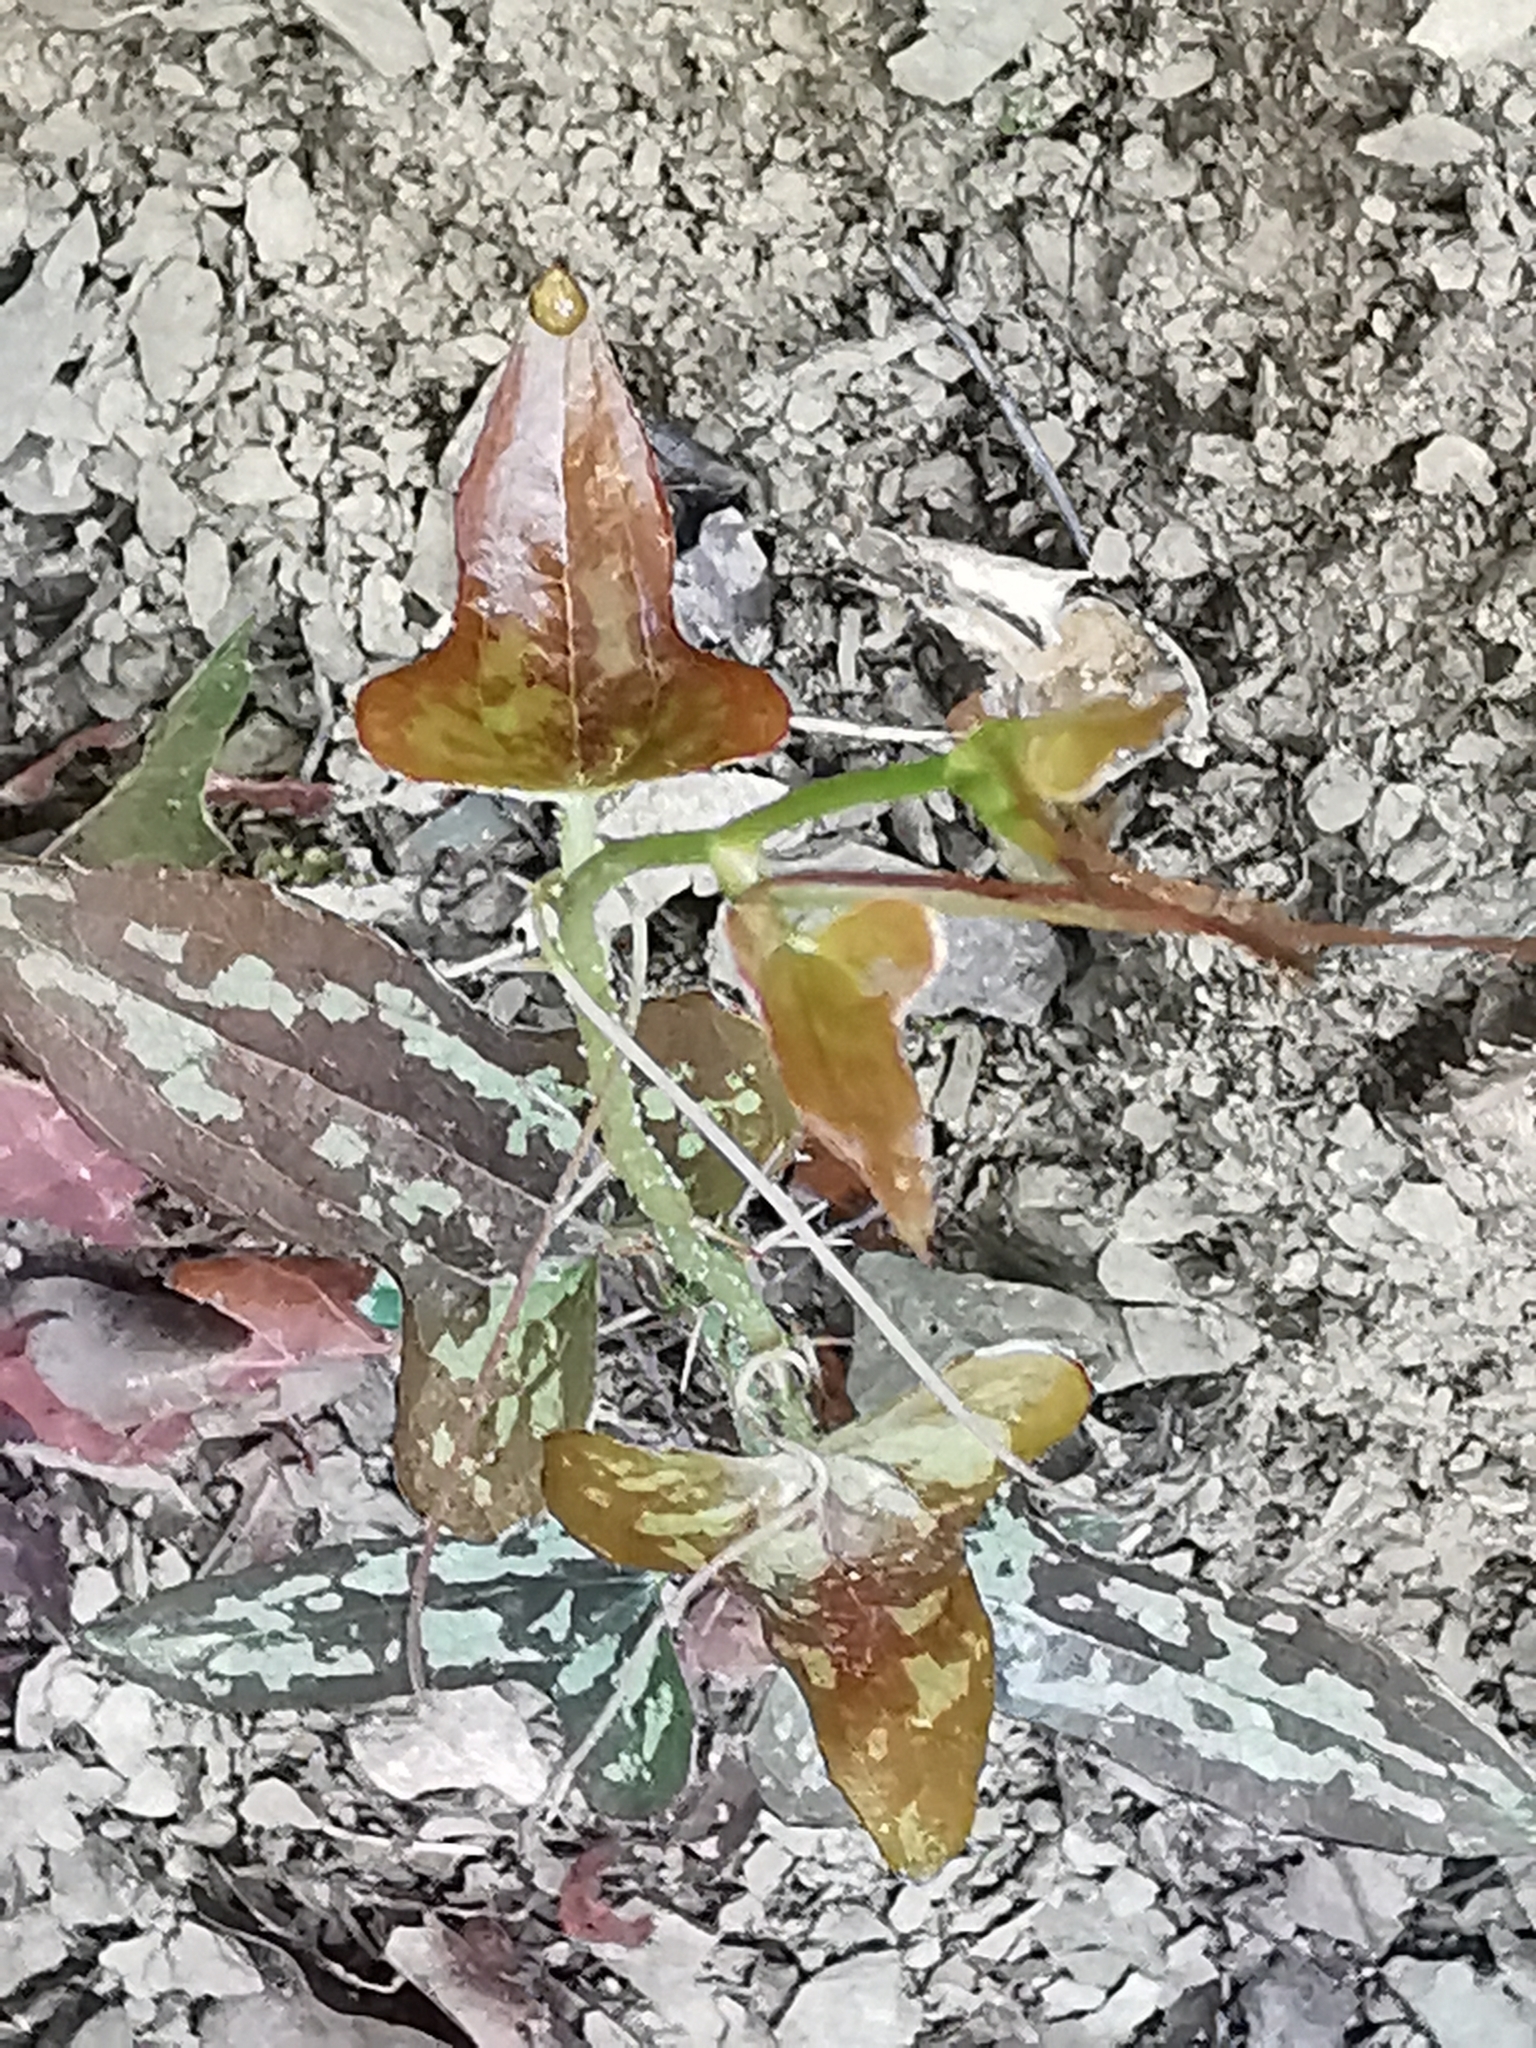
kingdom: Plantae
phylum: Tracheophyta
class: Liliopsida
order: Liliales
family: Smilacaceae
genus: Smilax
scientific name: Smilax bona-nox
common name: Catbrier
